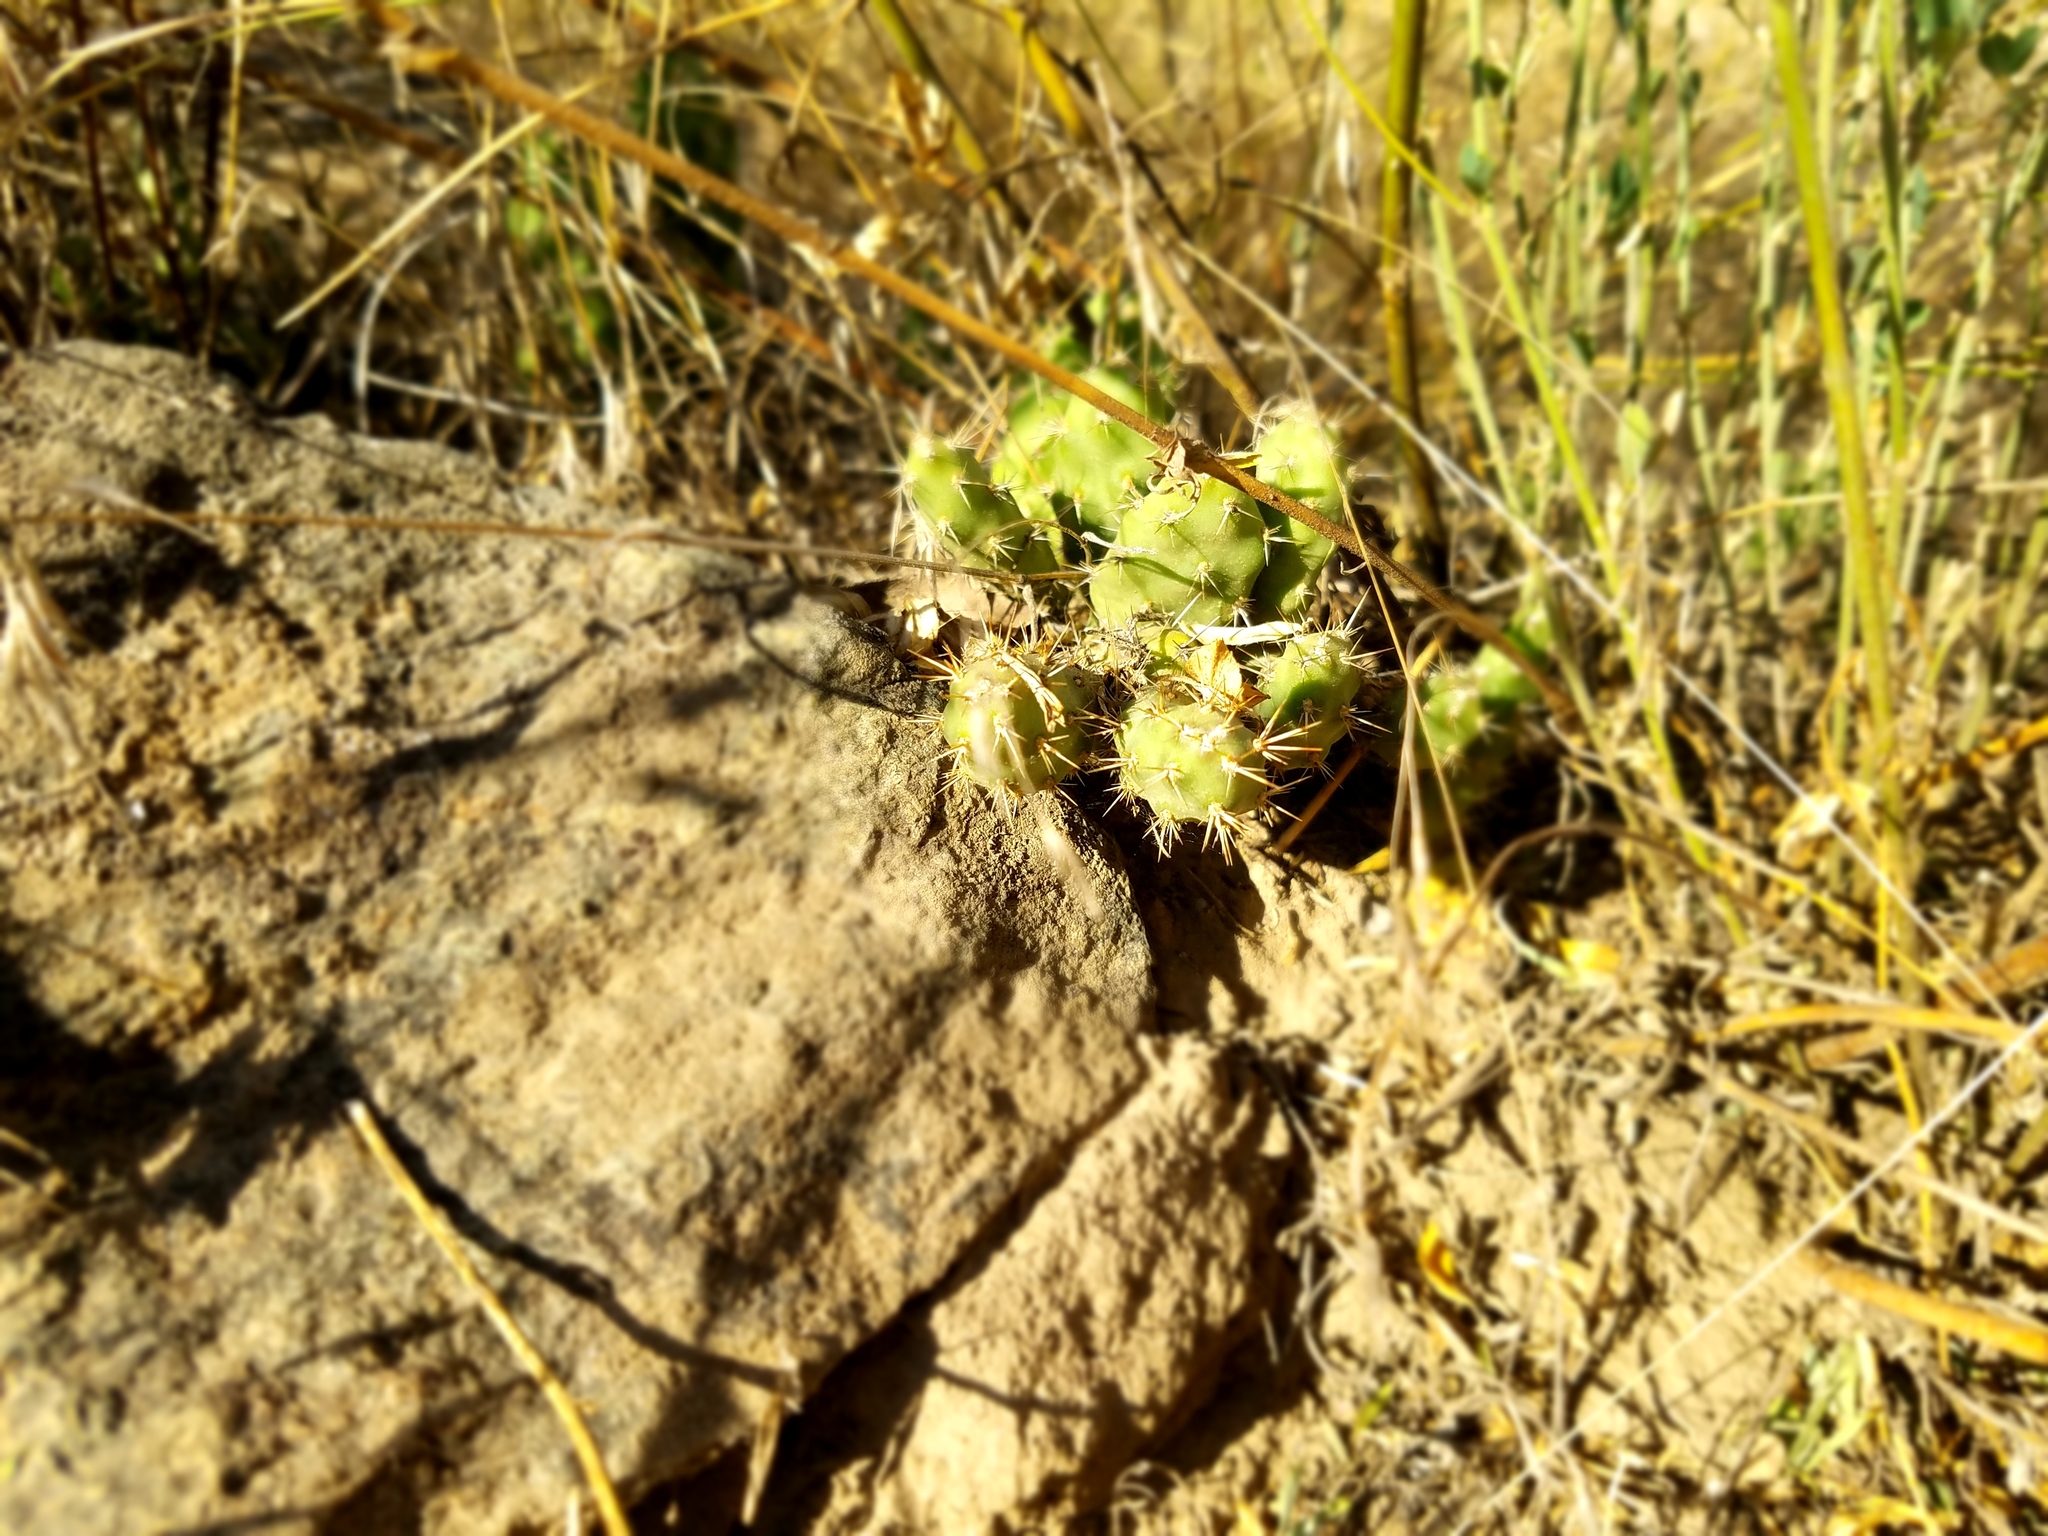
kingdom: Plantae
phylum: Tracheophyta
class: Magnoliopsida
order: Caryophyllales
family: Cactaceae
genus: Opuntia
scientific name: Opuntia fragilis
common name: Brittle cactus
